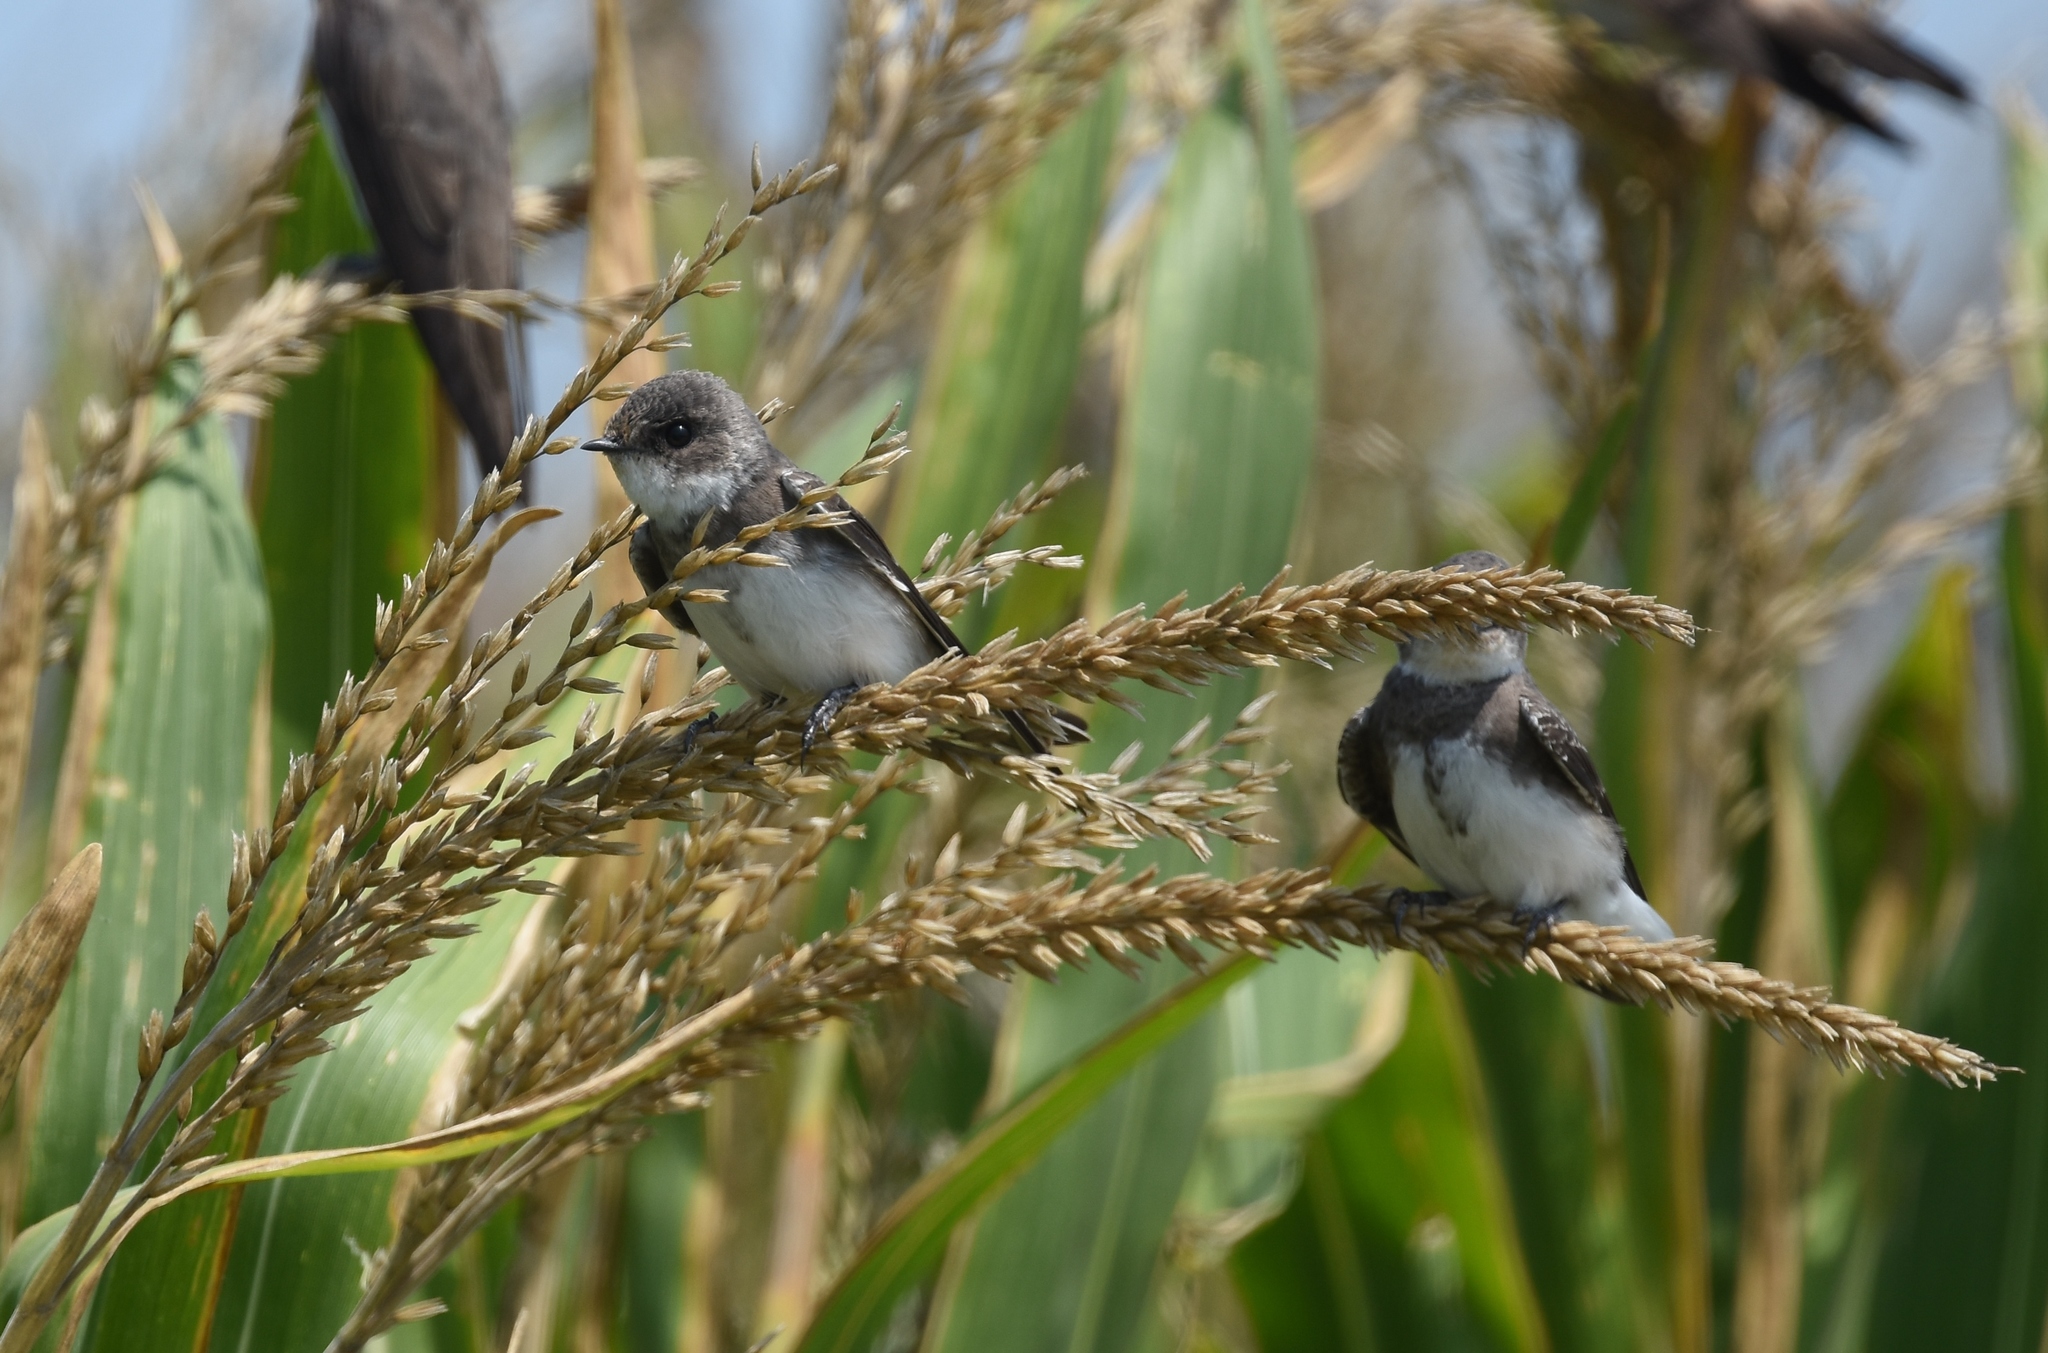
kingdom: Animalia
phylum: Chordata
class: Aves
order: Passeriformes
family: Hirundinidae
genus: Riparia
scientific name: Riparia riparia
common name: Sand martin
